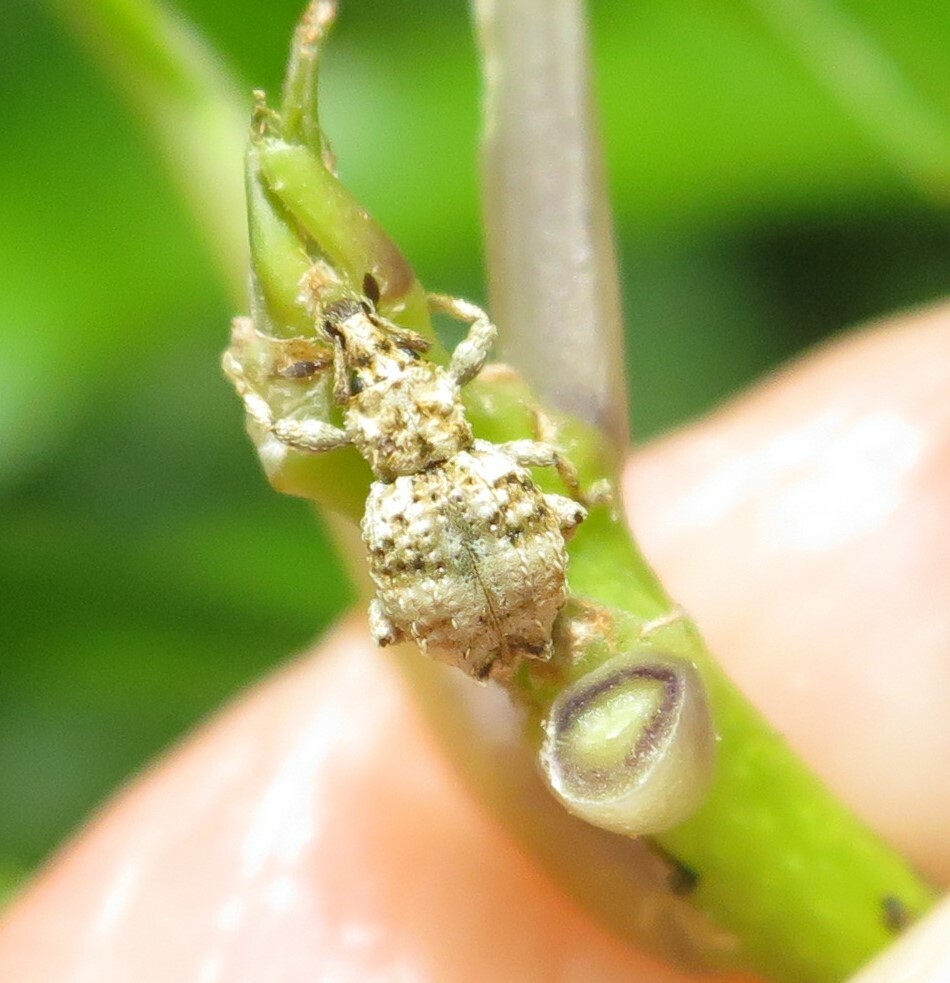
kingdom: Animalia
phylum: Arthropoda
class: Insecta
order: Coleoptera
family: Curculionidae
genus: Brachyolus
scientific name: Brachyolus punctatus
